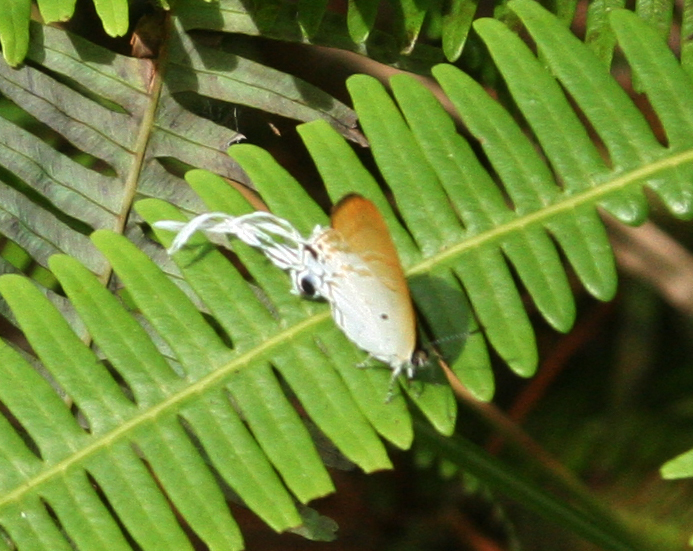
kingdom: Animalia
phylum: Arthropoda
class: Insecta
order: Lepidoptera
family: Lycaenidae
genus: Zeltus
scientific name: Zeltus amasa
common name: Fluffy tit
